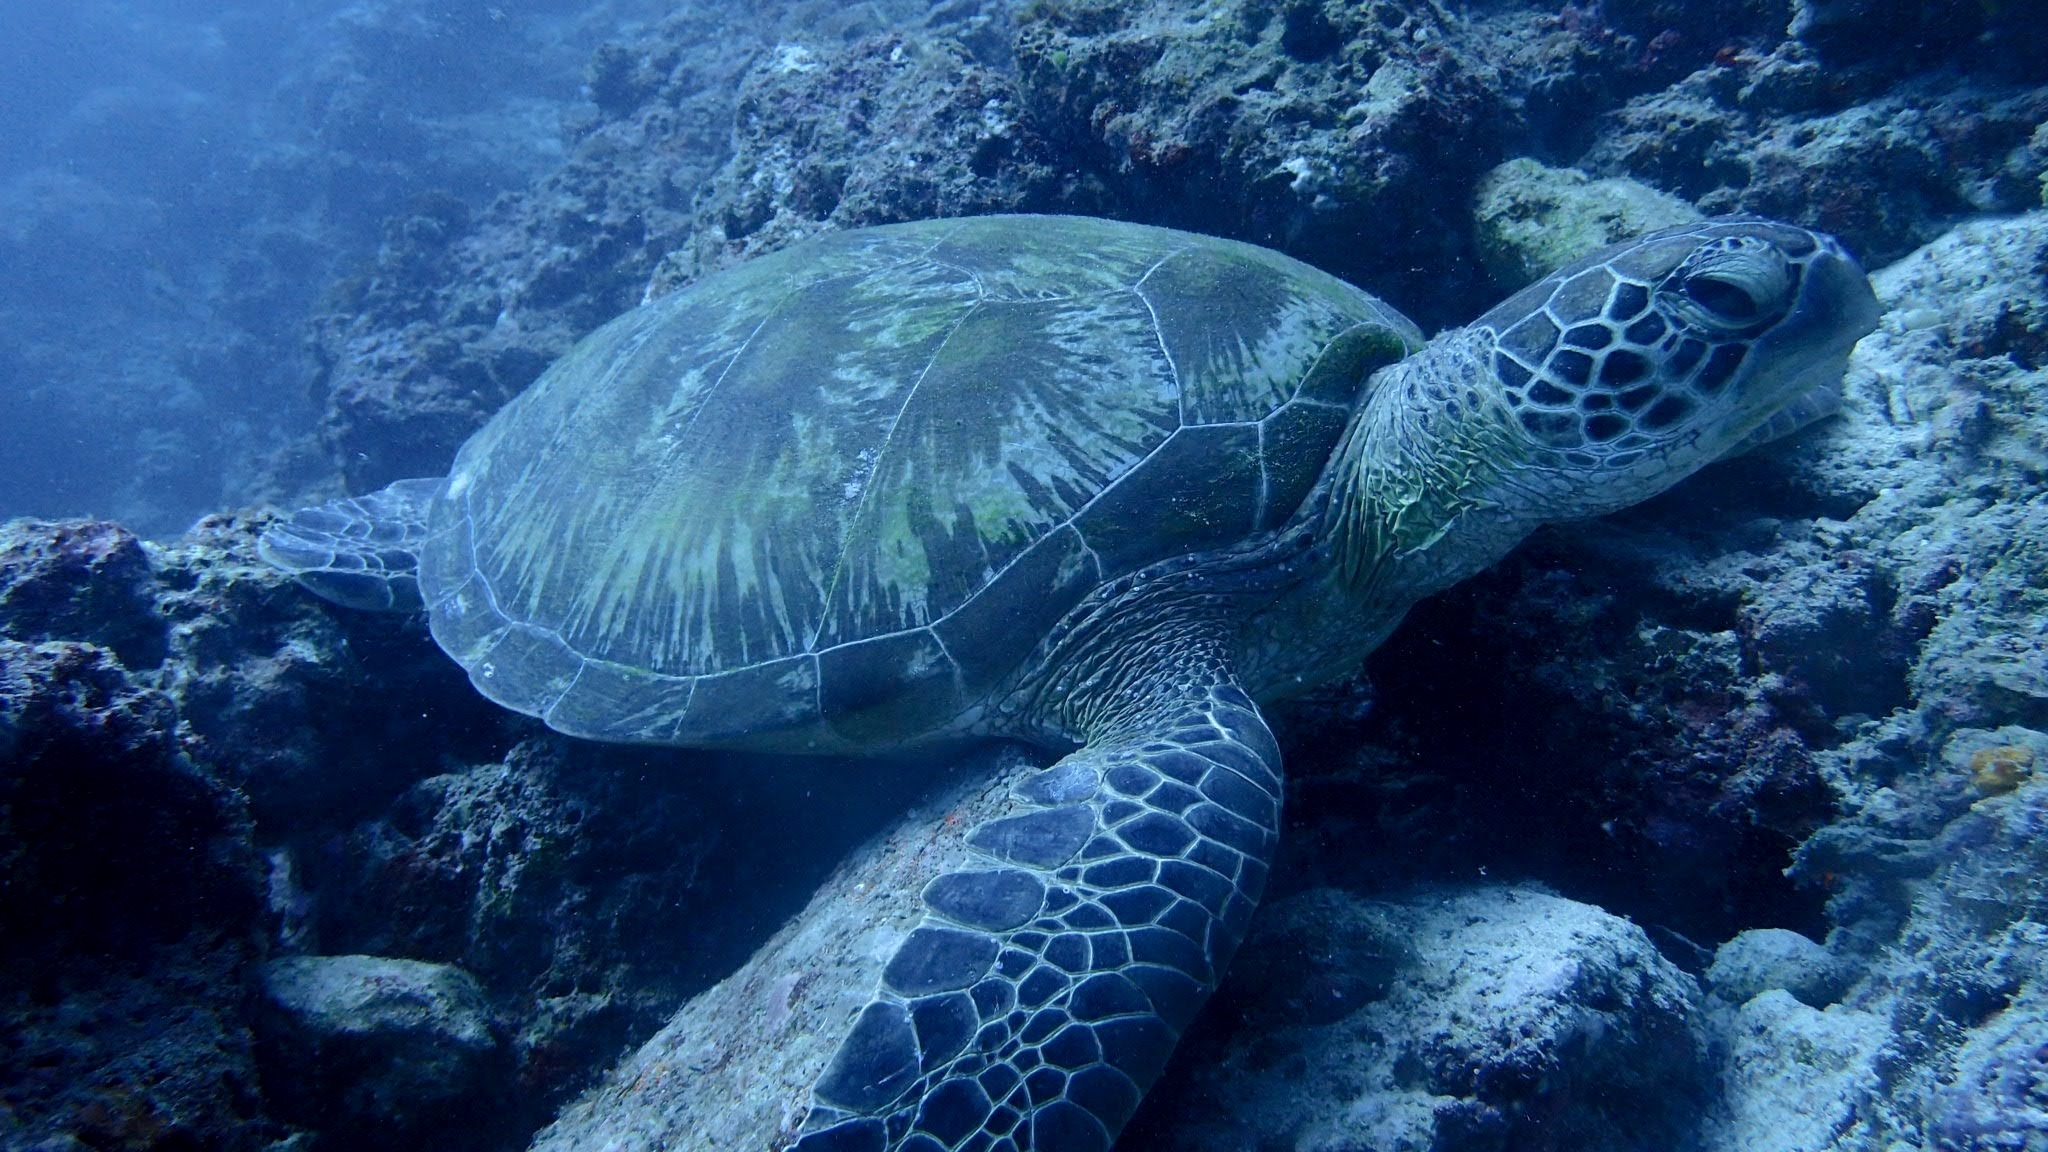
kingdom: Animalia
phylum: Chordata
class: Testudines
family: Cheloniidae
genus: Chelonia
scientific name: Chelonia mydas
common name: Green turtle
